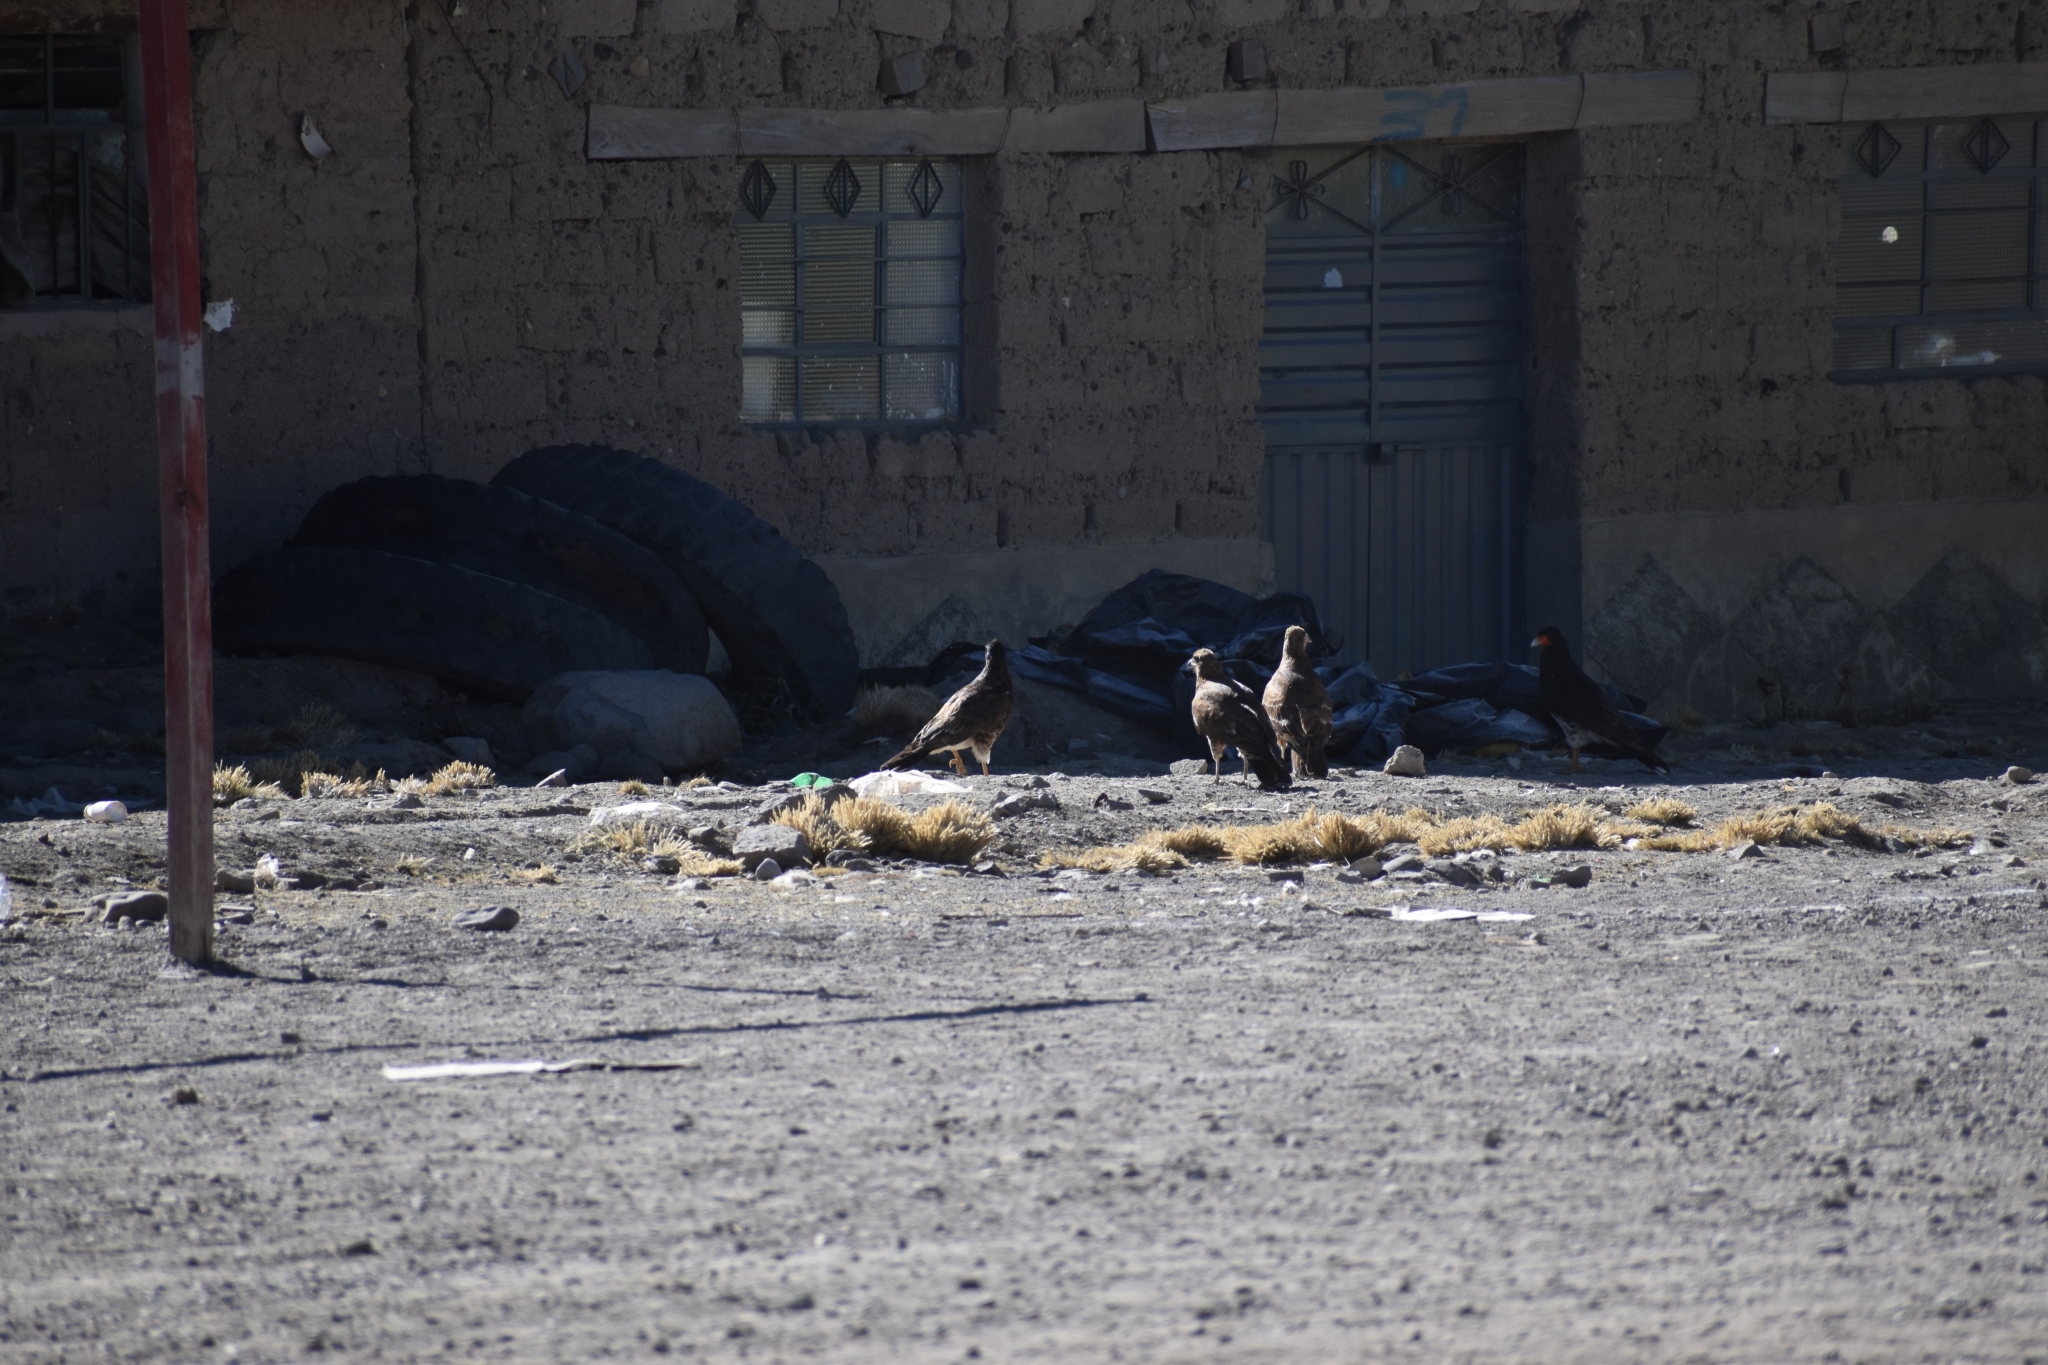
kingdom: Animalia
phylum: Chordata
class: Aves
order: Falconiformes
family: Falconidae
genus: Daptrius
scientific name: Daptrius
